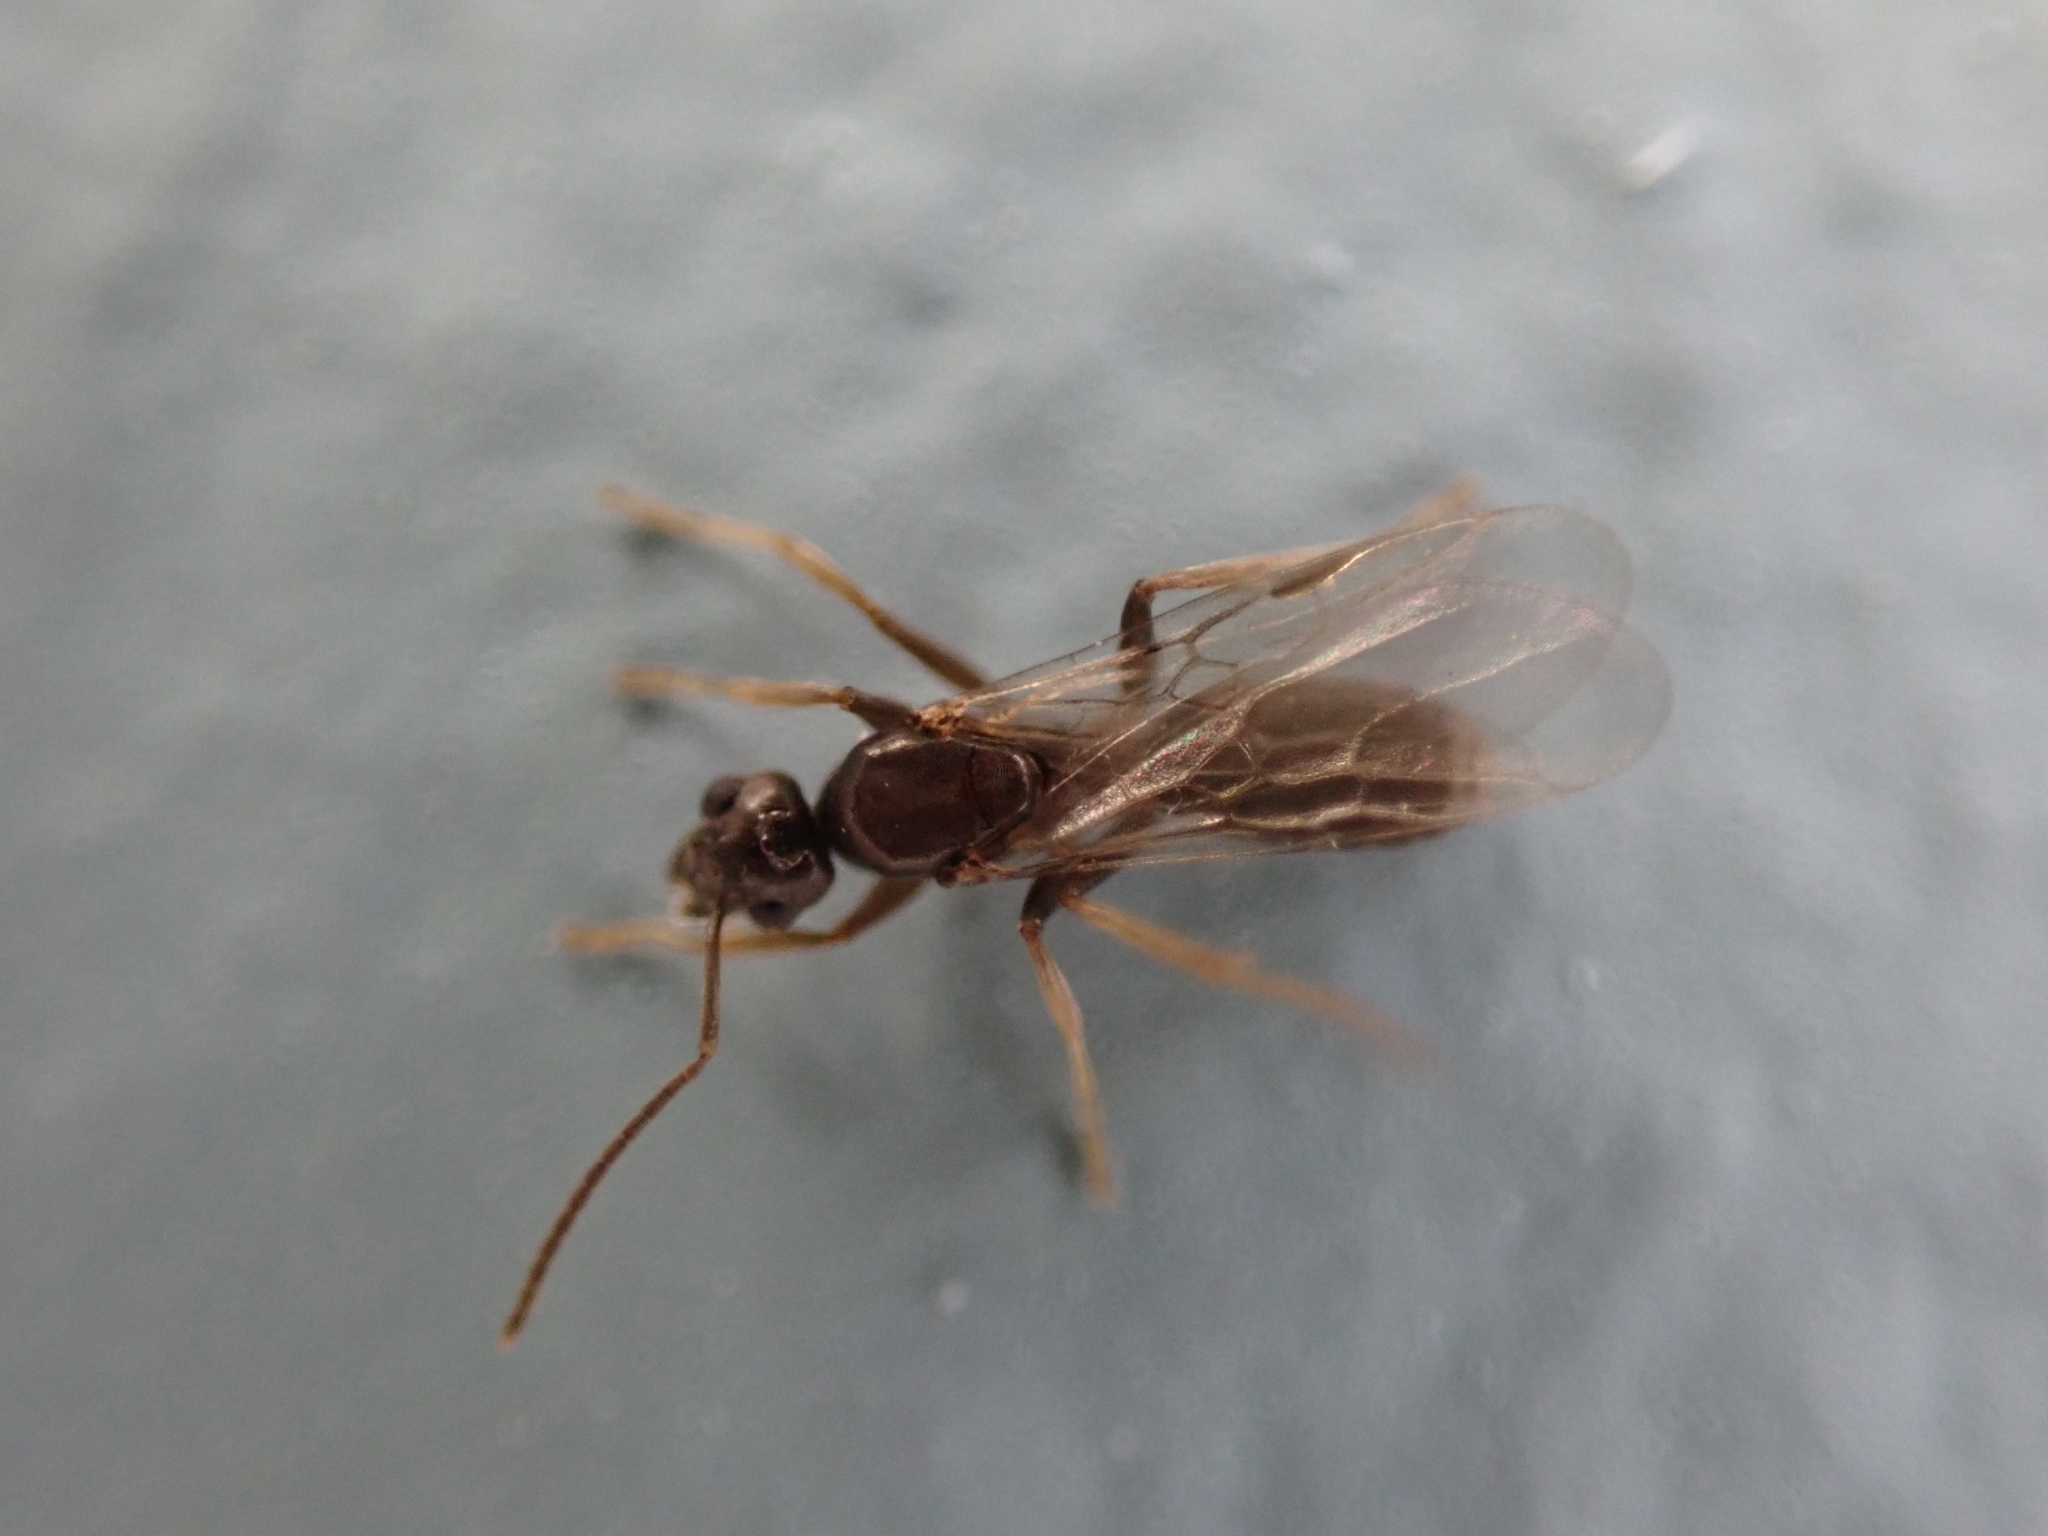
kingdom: Animalia
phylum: Arthropoda
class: Insecta
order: Hymenoptera
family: Formicidae
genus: Tapinoma
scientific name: Tapinoma sessile
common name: Odorous house ant
